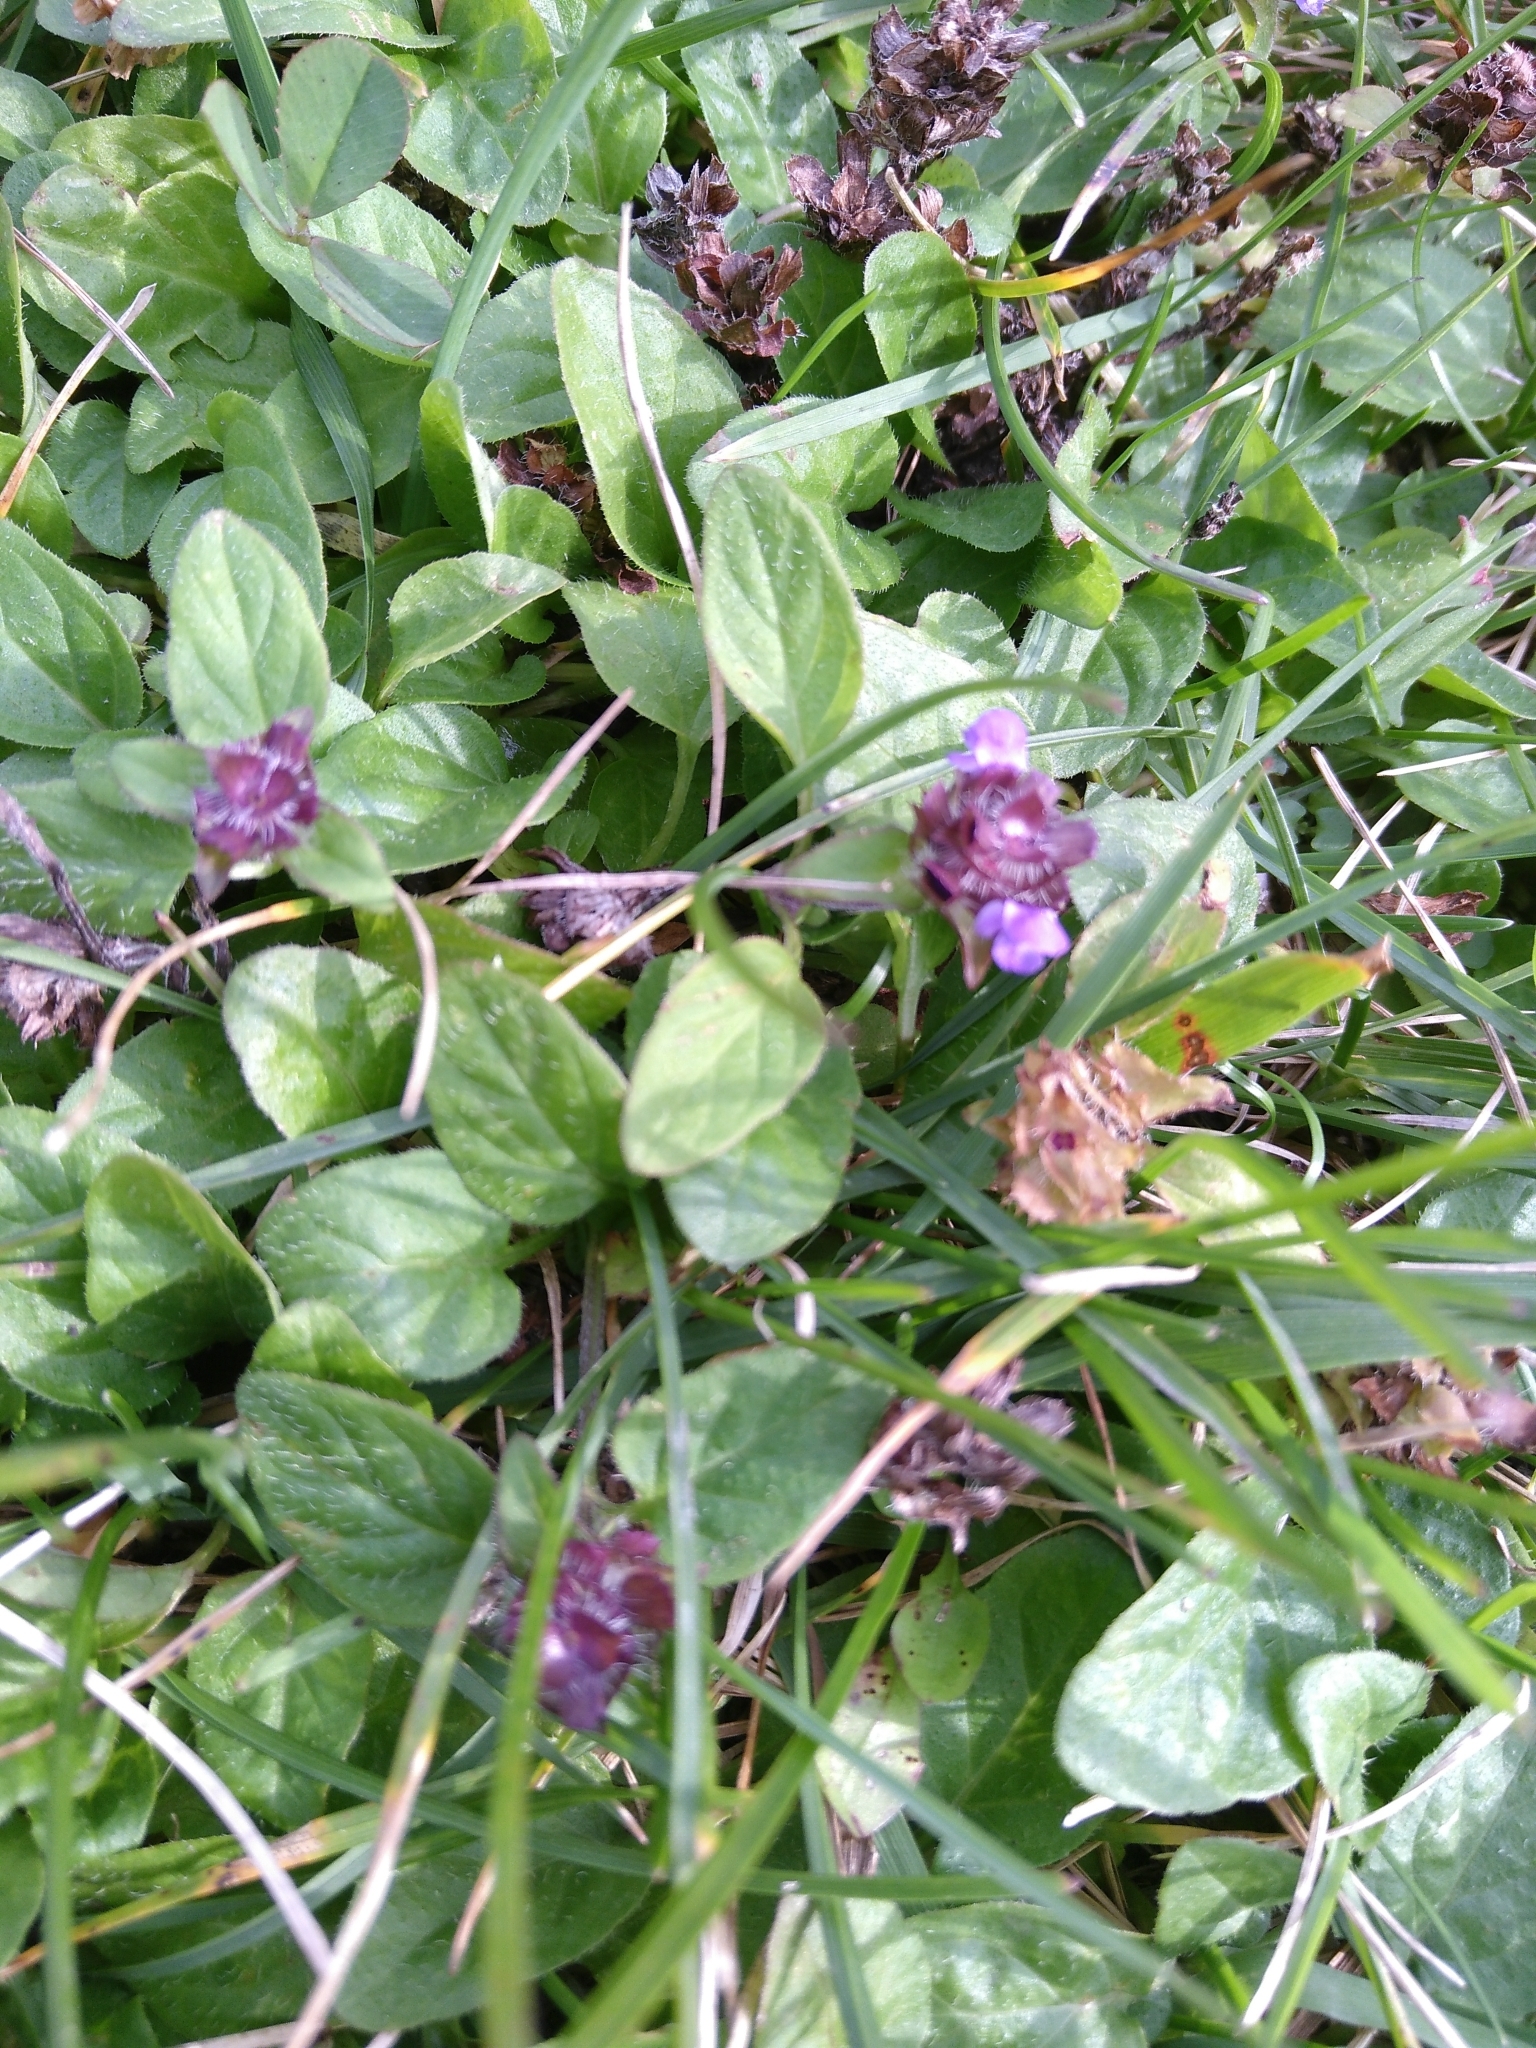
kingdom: Plantae
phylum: Tracheophyta
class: Magnoliopsida
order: Lamiales
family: Lamiaceae
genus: Prunella
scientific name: Prunella vulgaris
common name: Heal-all
